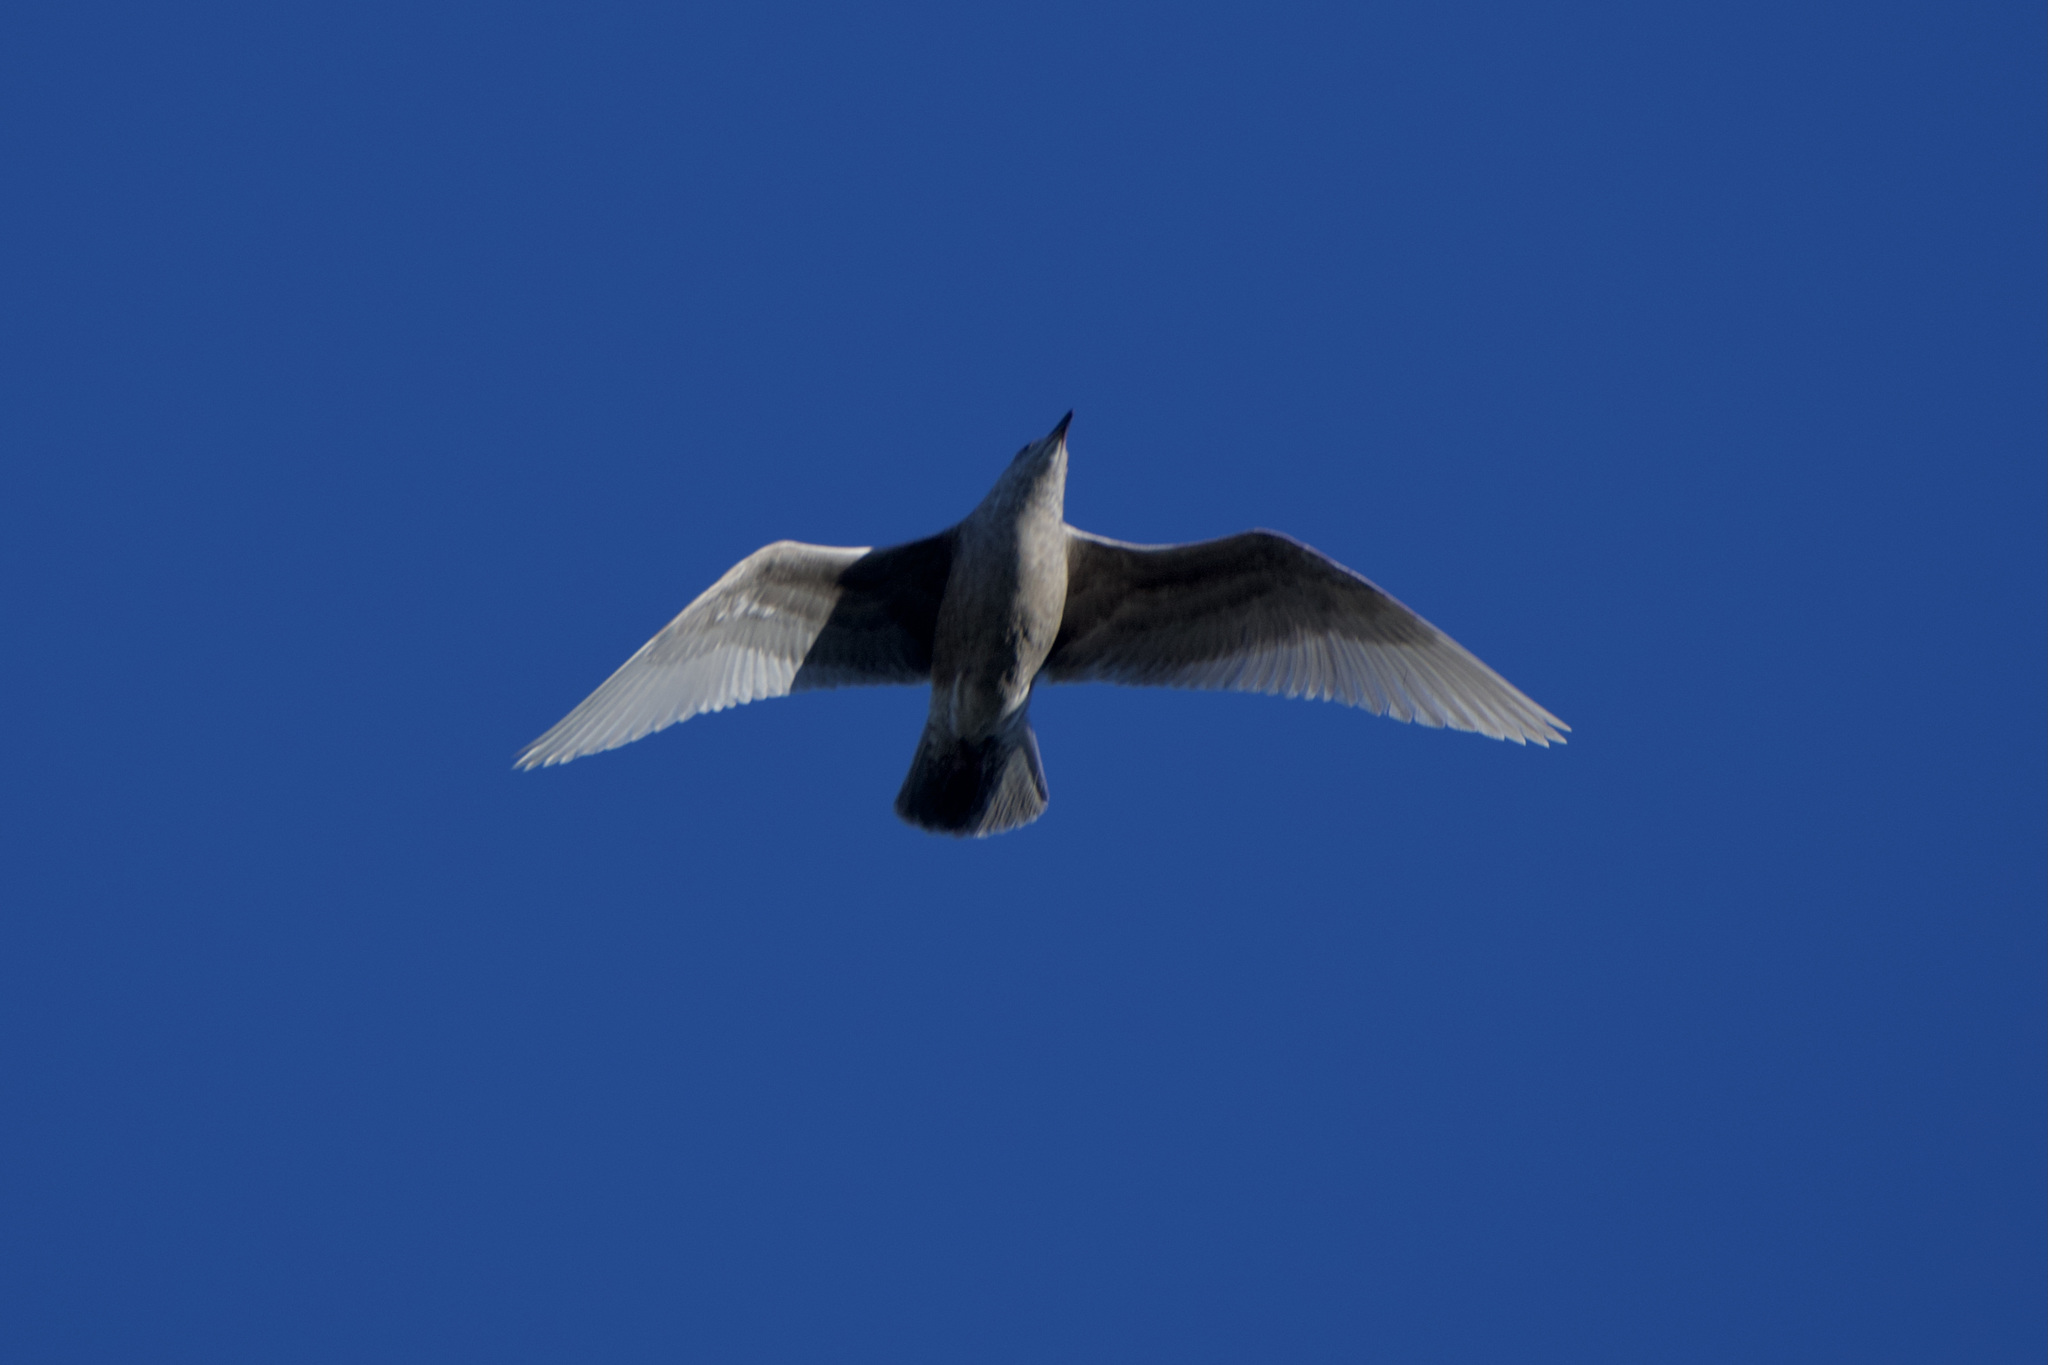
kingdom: Animalia
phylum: Chordata
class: Aves
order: Charadriiformes
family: Laridae
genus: Larus
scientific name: Larus glaucescens
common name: Glaucous-winged gull
